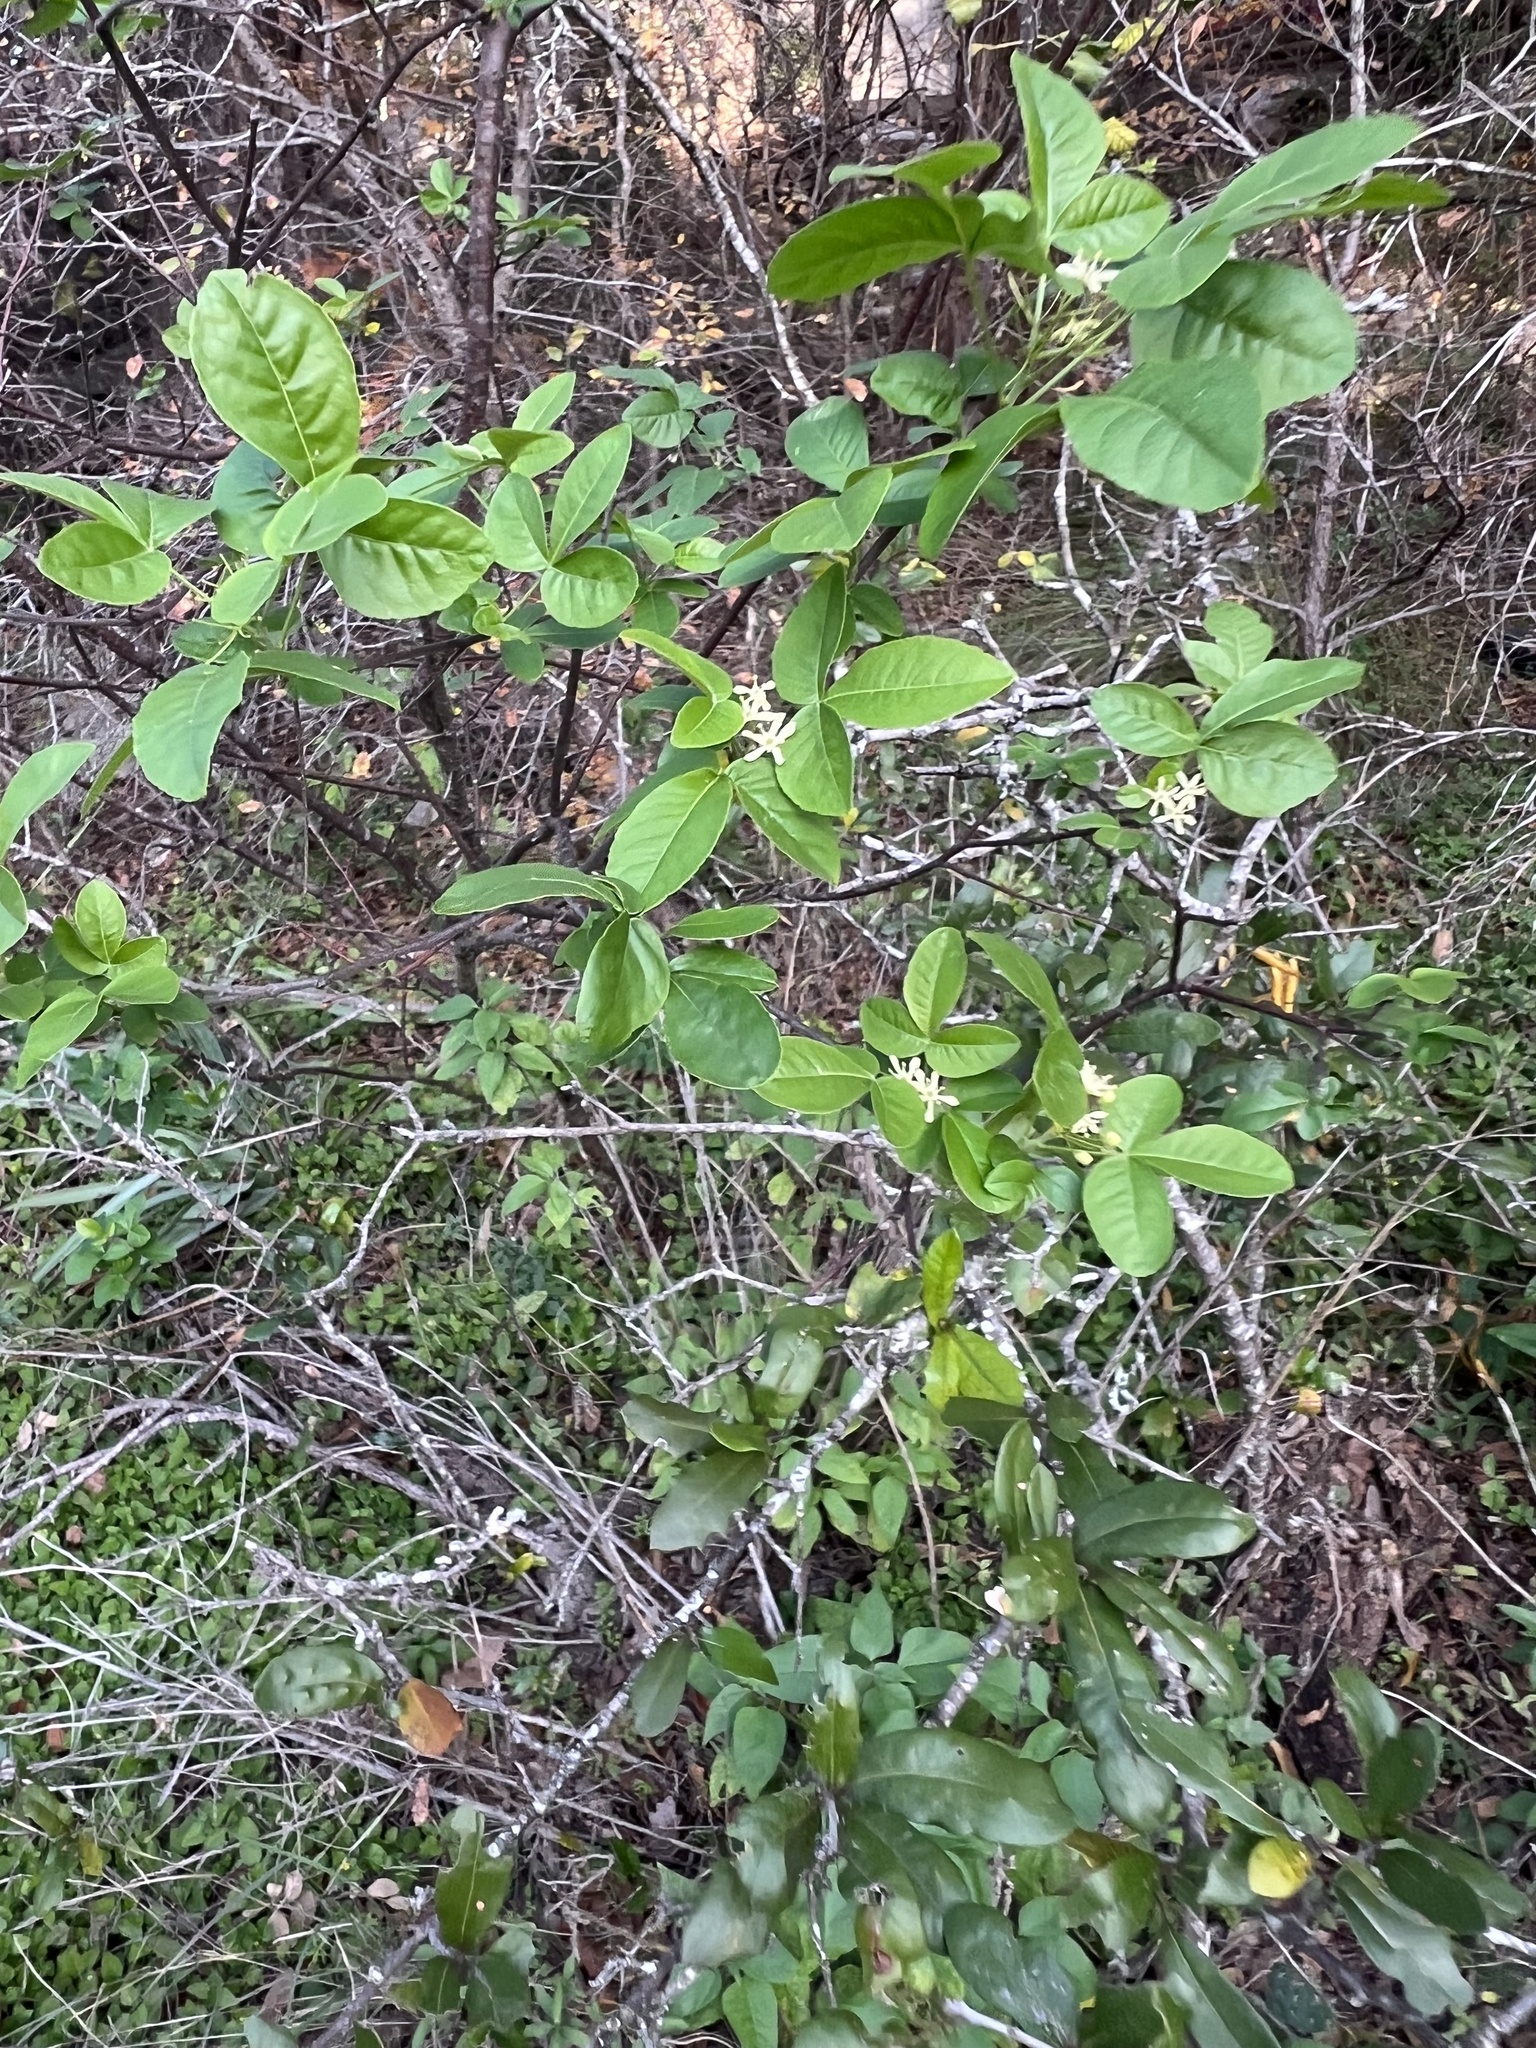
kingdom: Plantae
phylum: Tracheophyta
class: Magnoliopsida
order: Sapindales
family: Rutaceae
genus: Ptelea
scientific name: Ptelea trifoliata
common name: Common hop-tree
